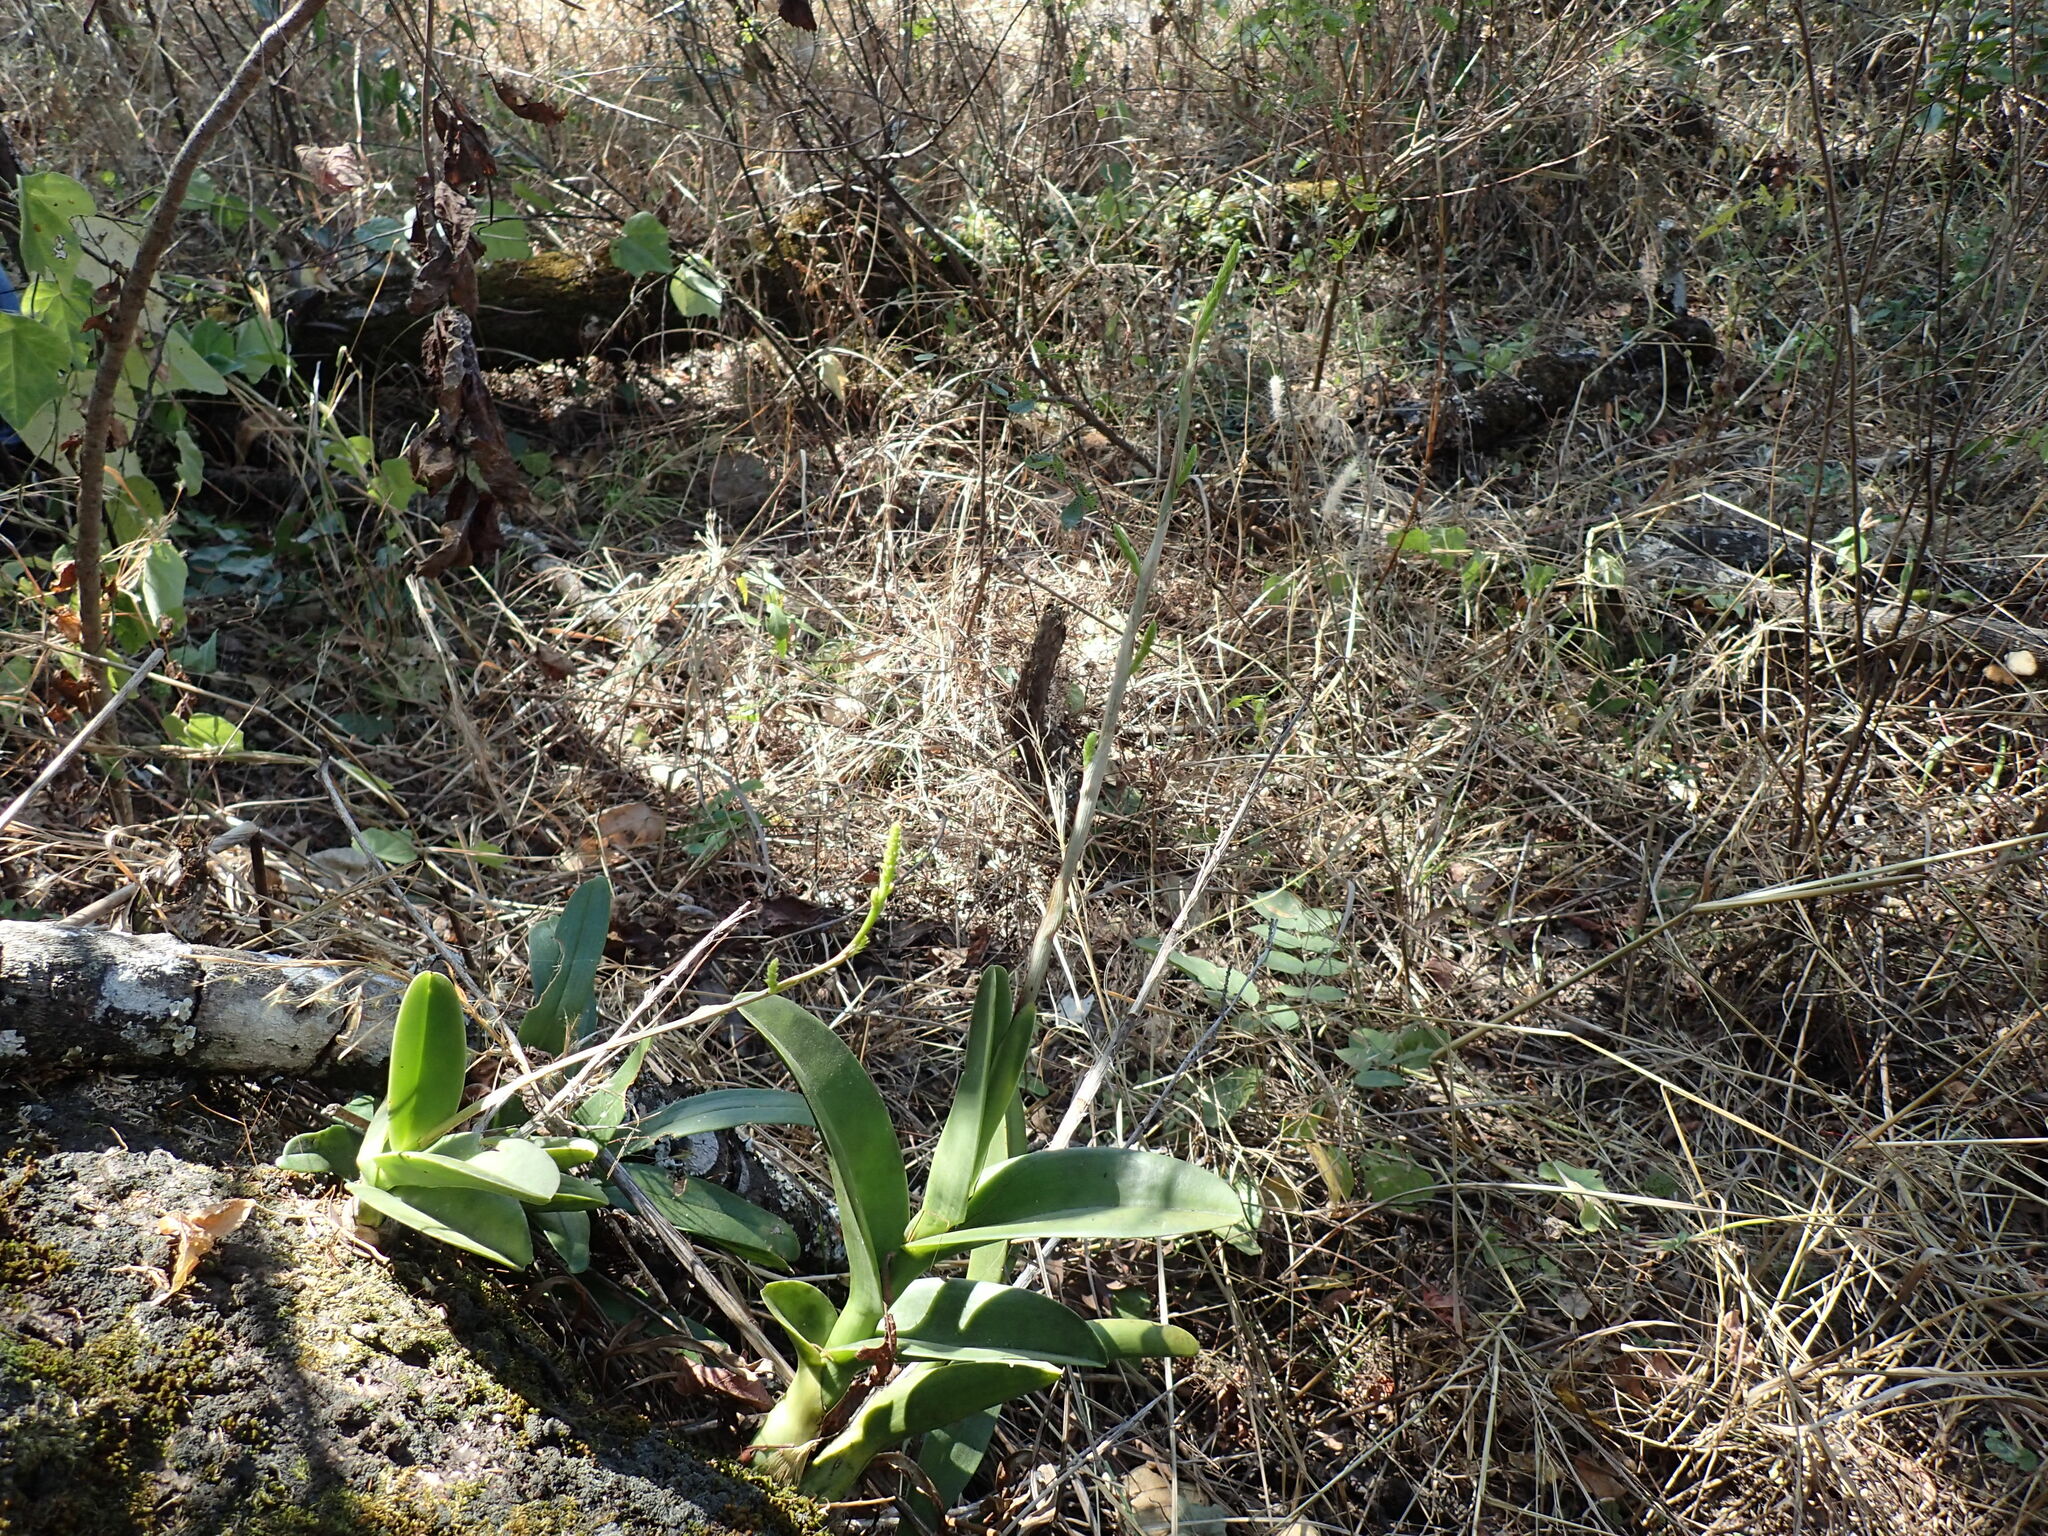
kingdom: Plantae
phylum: Tracheophyta
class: Liliopsida
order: Asparagales
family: Orchidaceae
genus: Polystachya
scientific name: Polystachya golungensis
